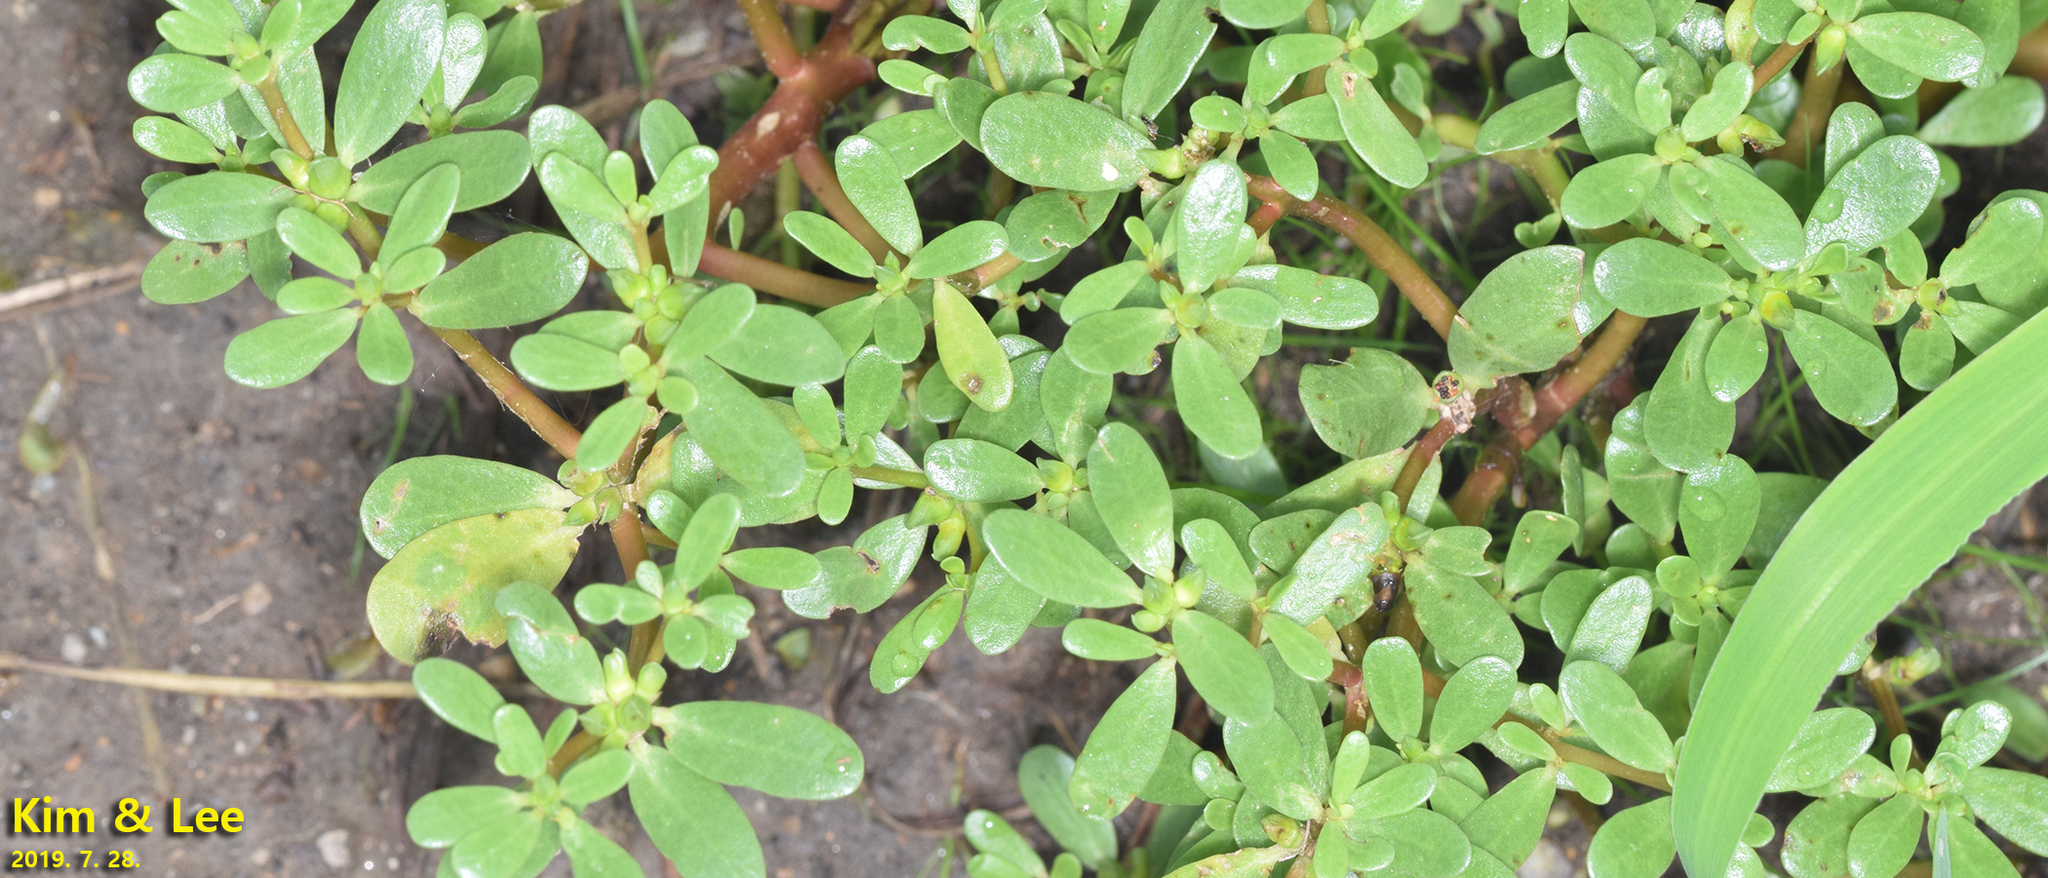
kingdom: Plantae
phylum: Tracheophyta
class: Magnoliopsida
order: Caryophyllales
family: Portulacaceae
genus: Portulaca
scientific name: Portulaca oleracea
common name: Common purslane
